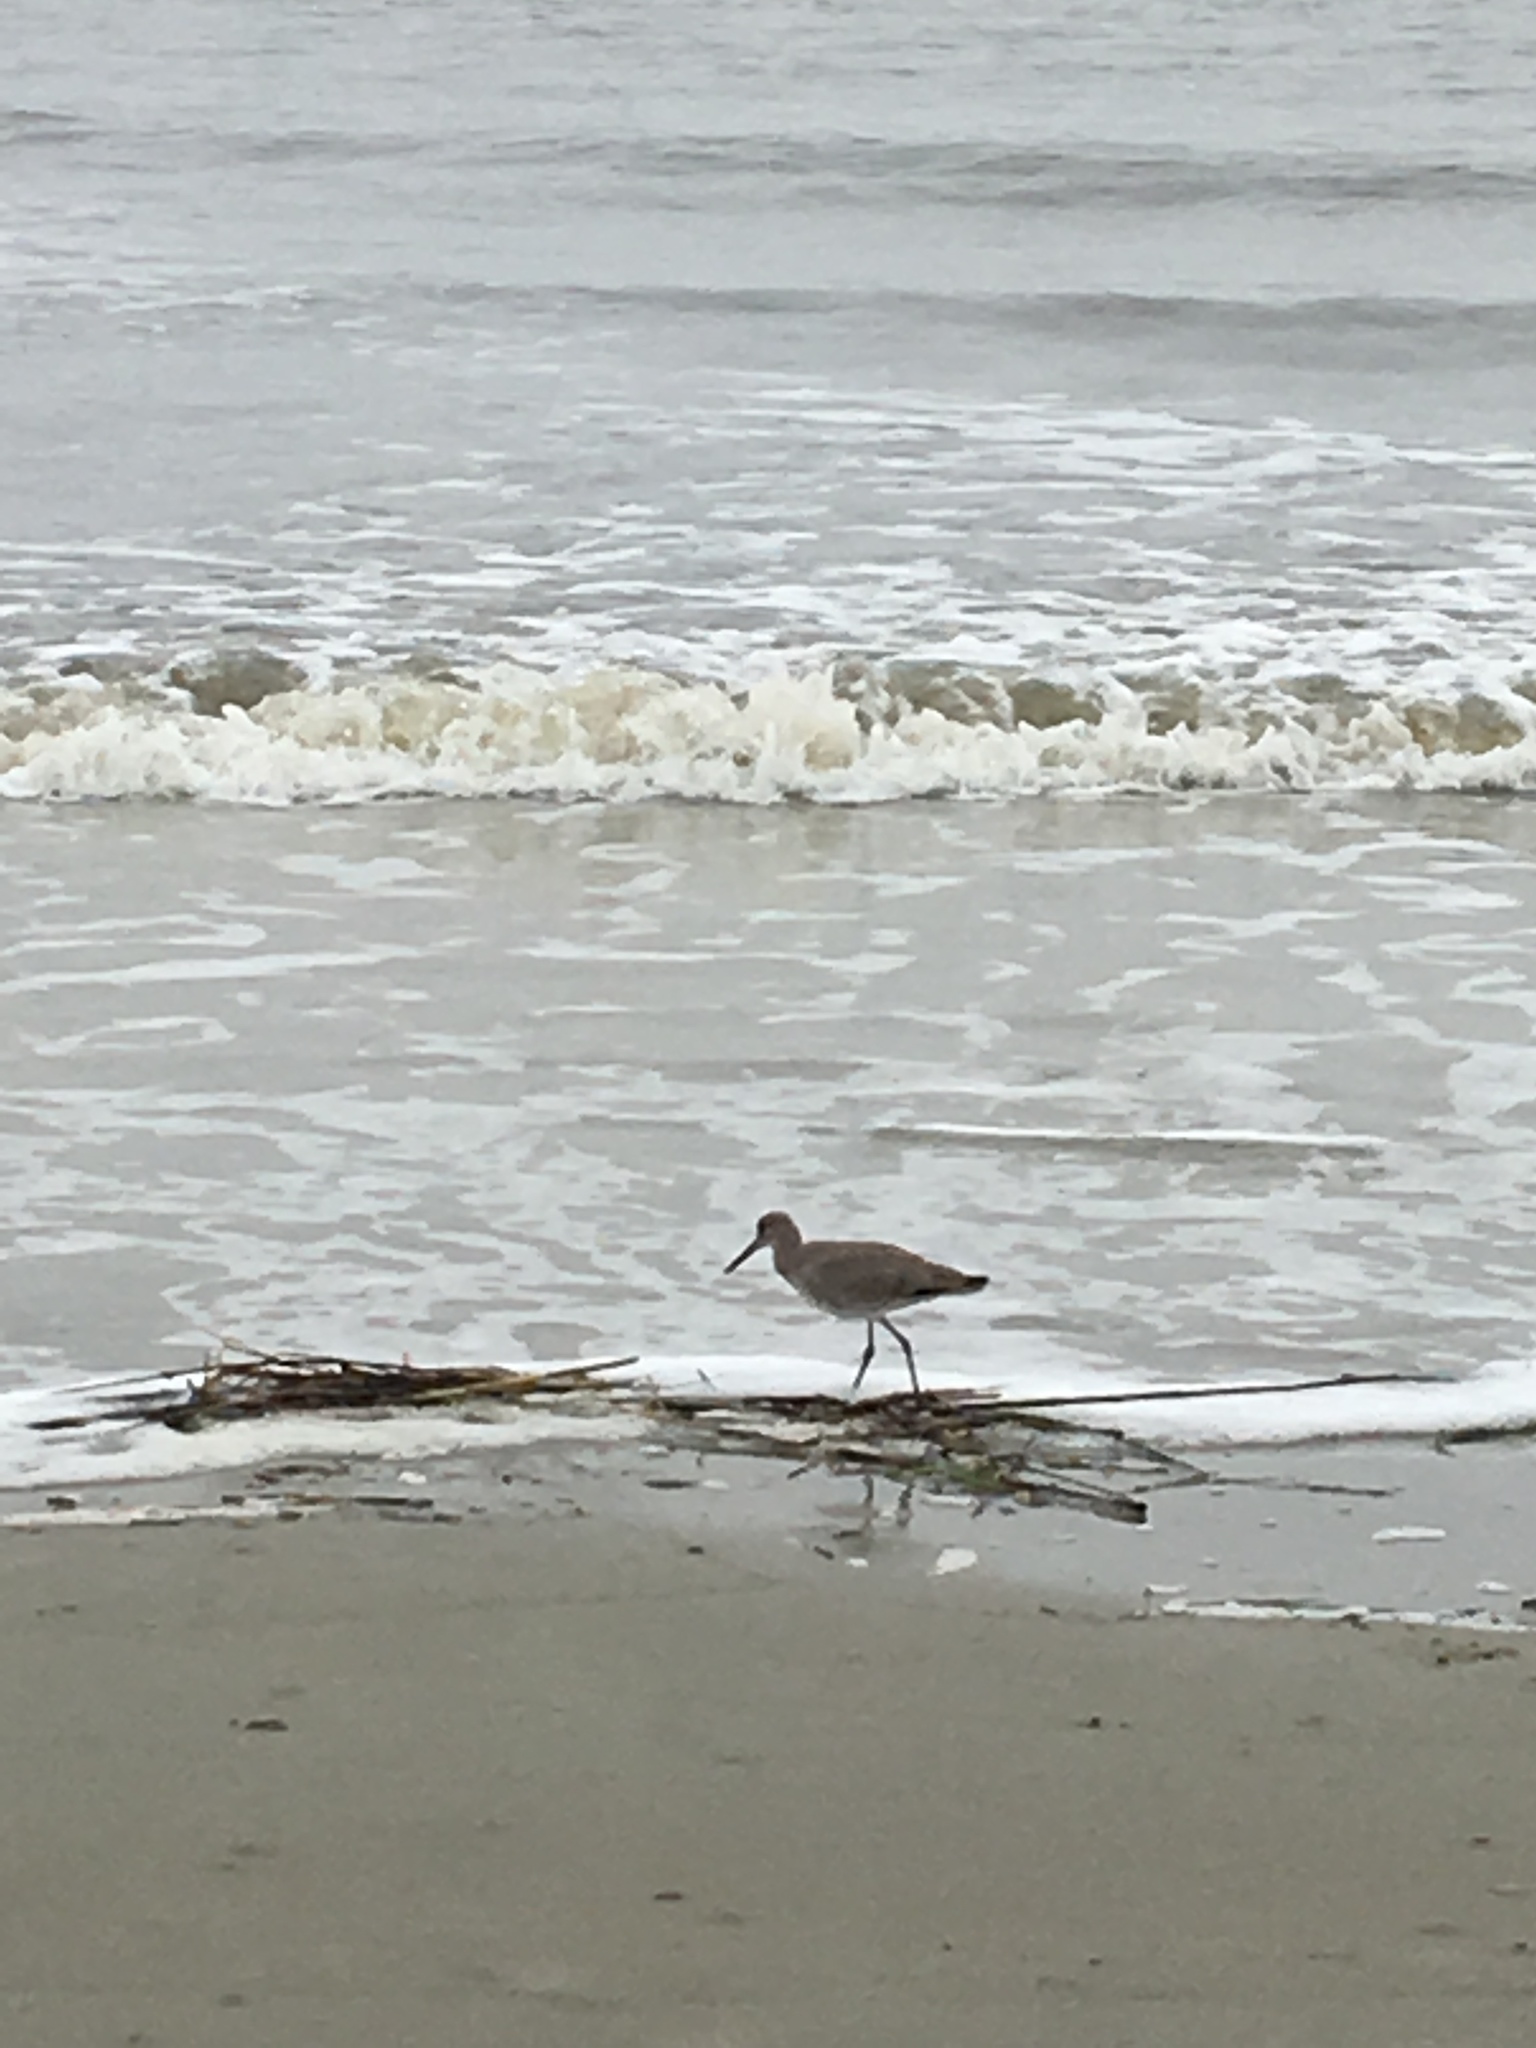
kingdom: Animalia
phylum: Chordata
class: Aves
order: Charadriiformes
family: Scolopacidae
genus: Tringa
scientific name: Tringa semipalmata
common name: Willet
